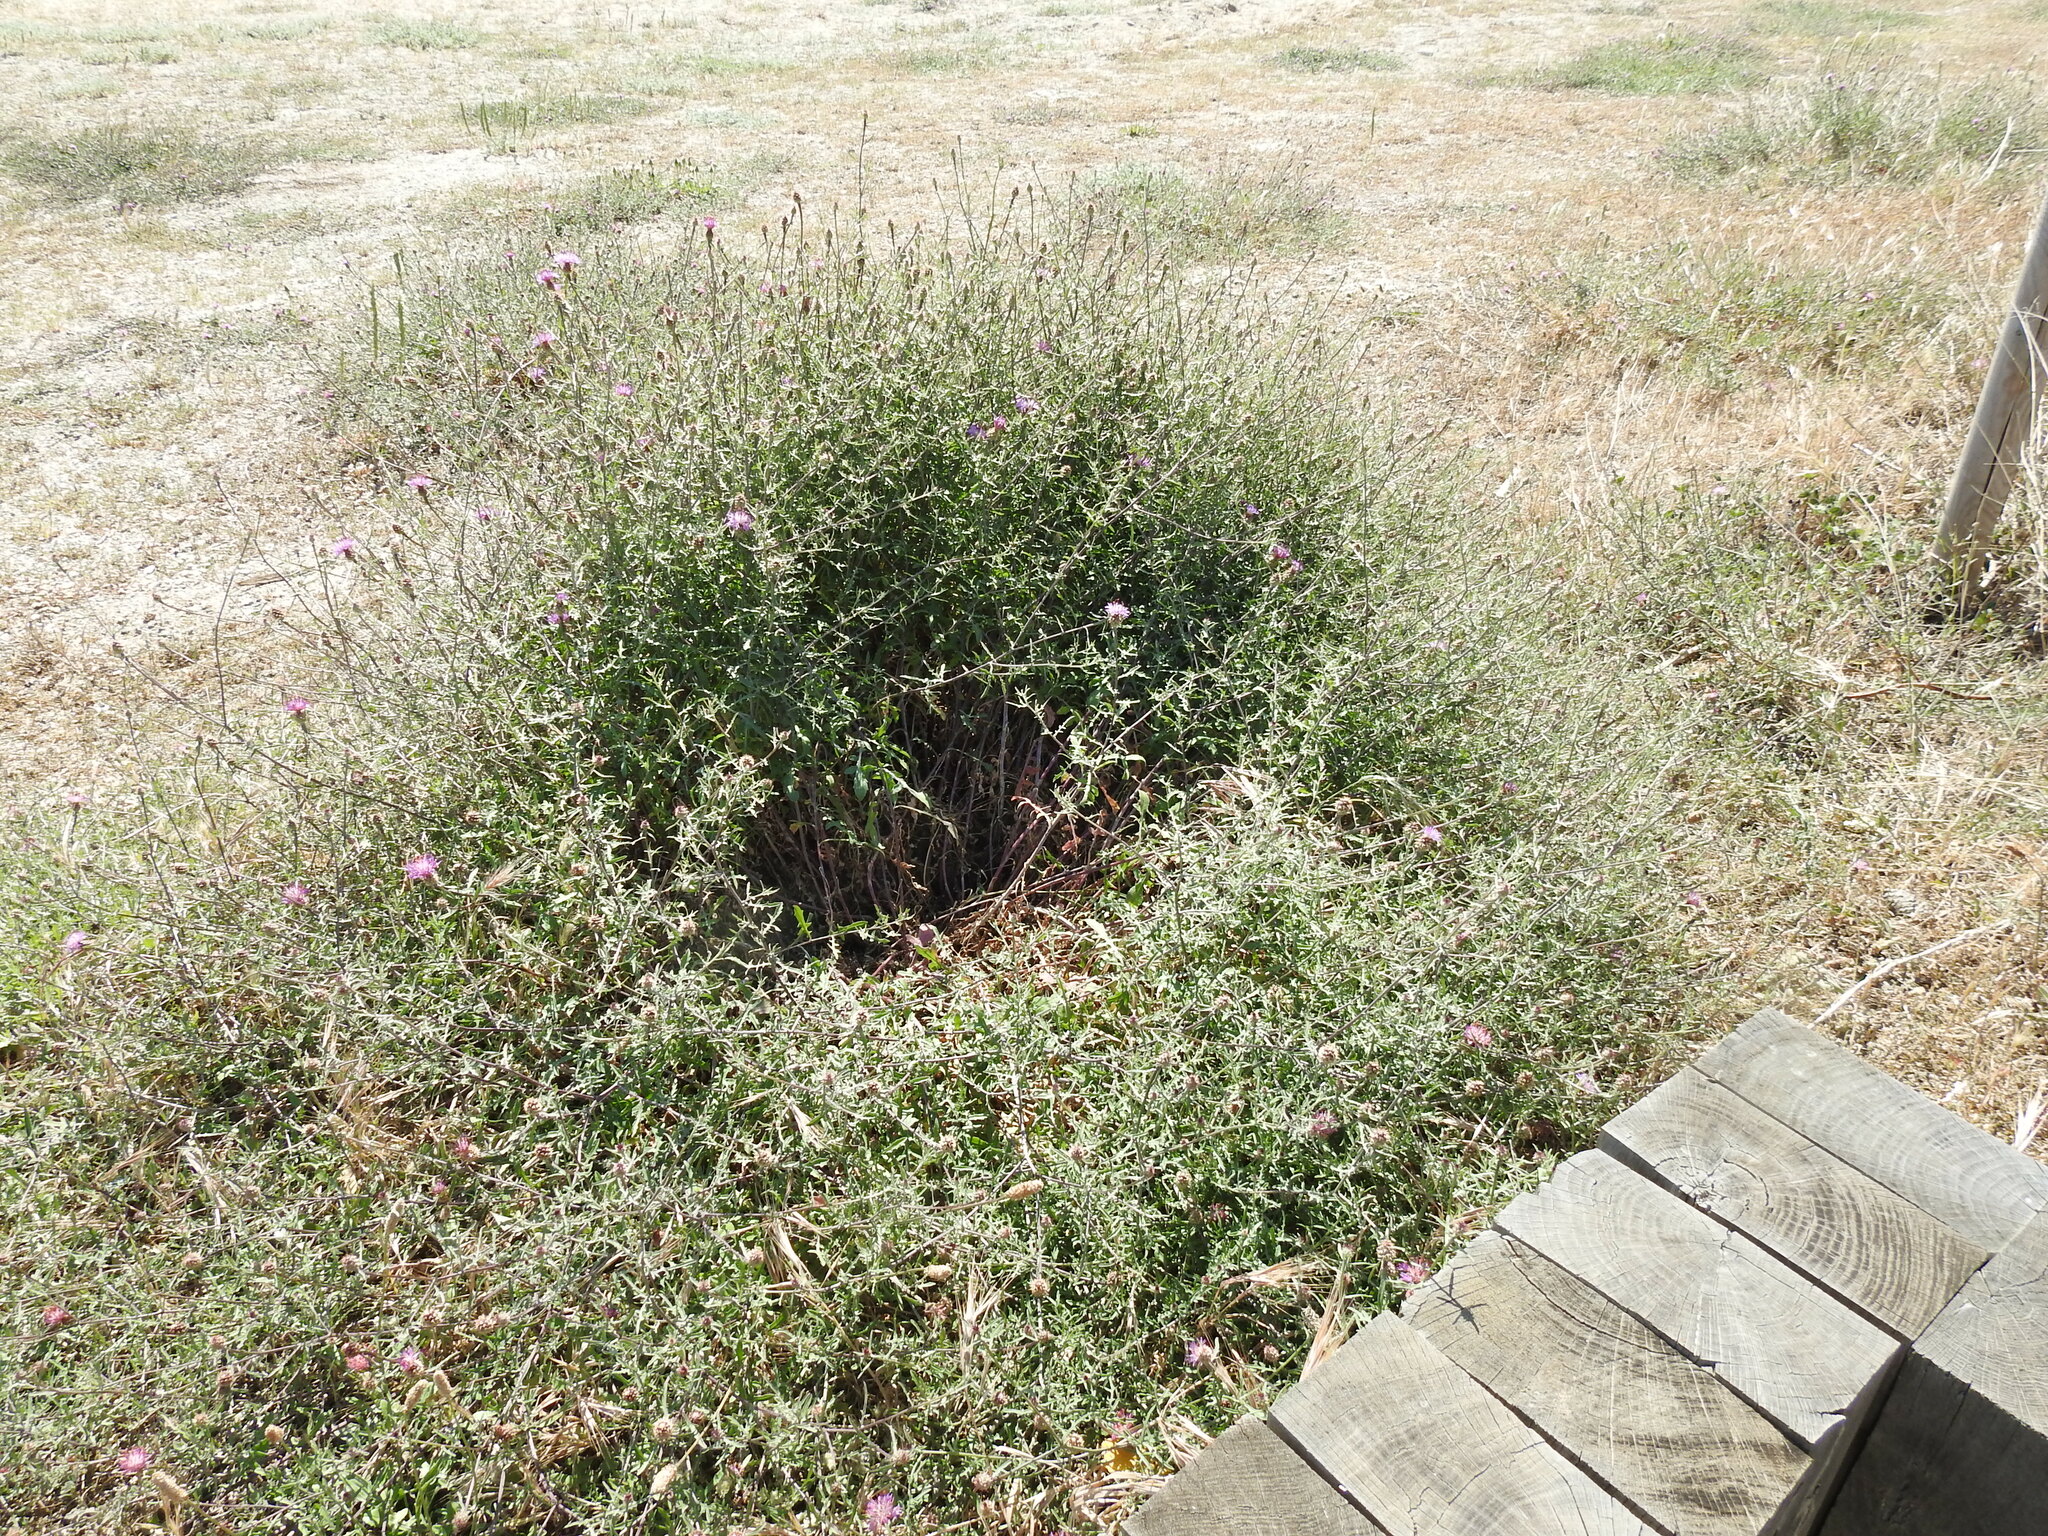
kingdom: Plantae
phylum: Tracheophyta
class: Magnoliopsida
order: Asterales
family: Asteraceae
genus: Centaurea
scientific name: Centaurea aspera
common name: Rough star-thistle
